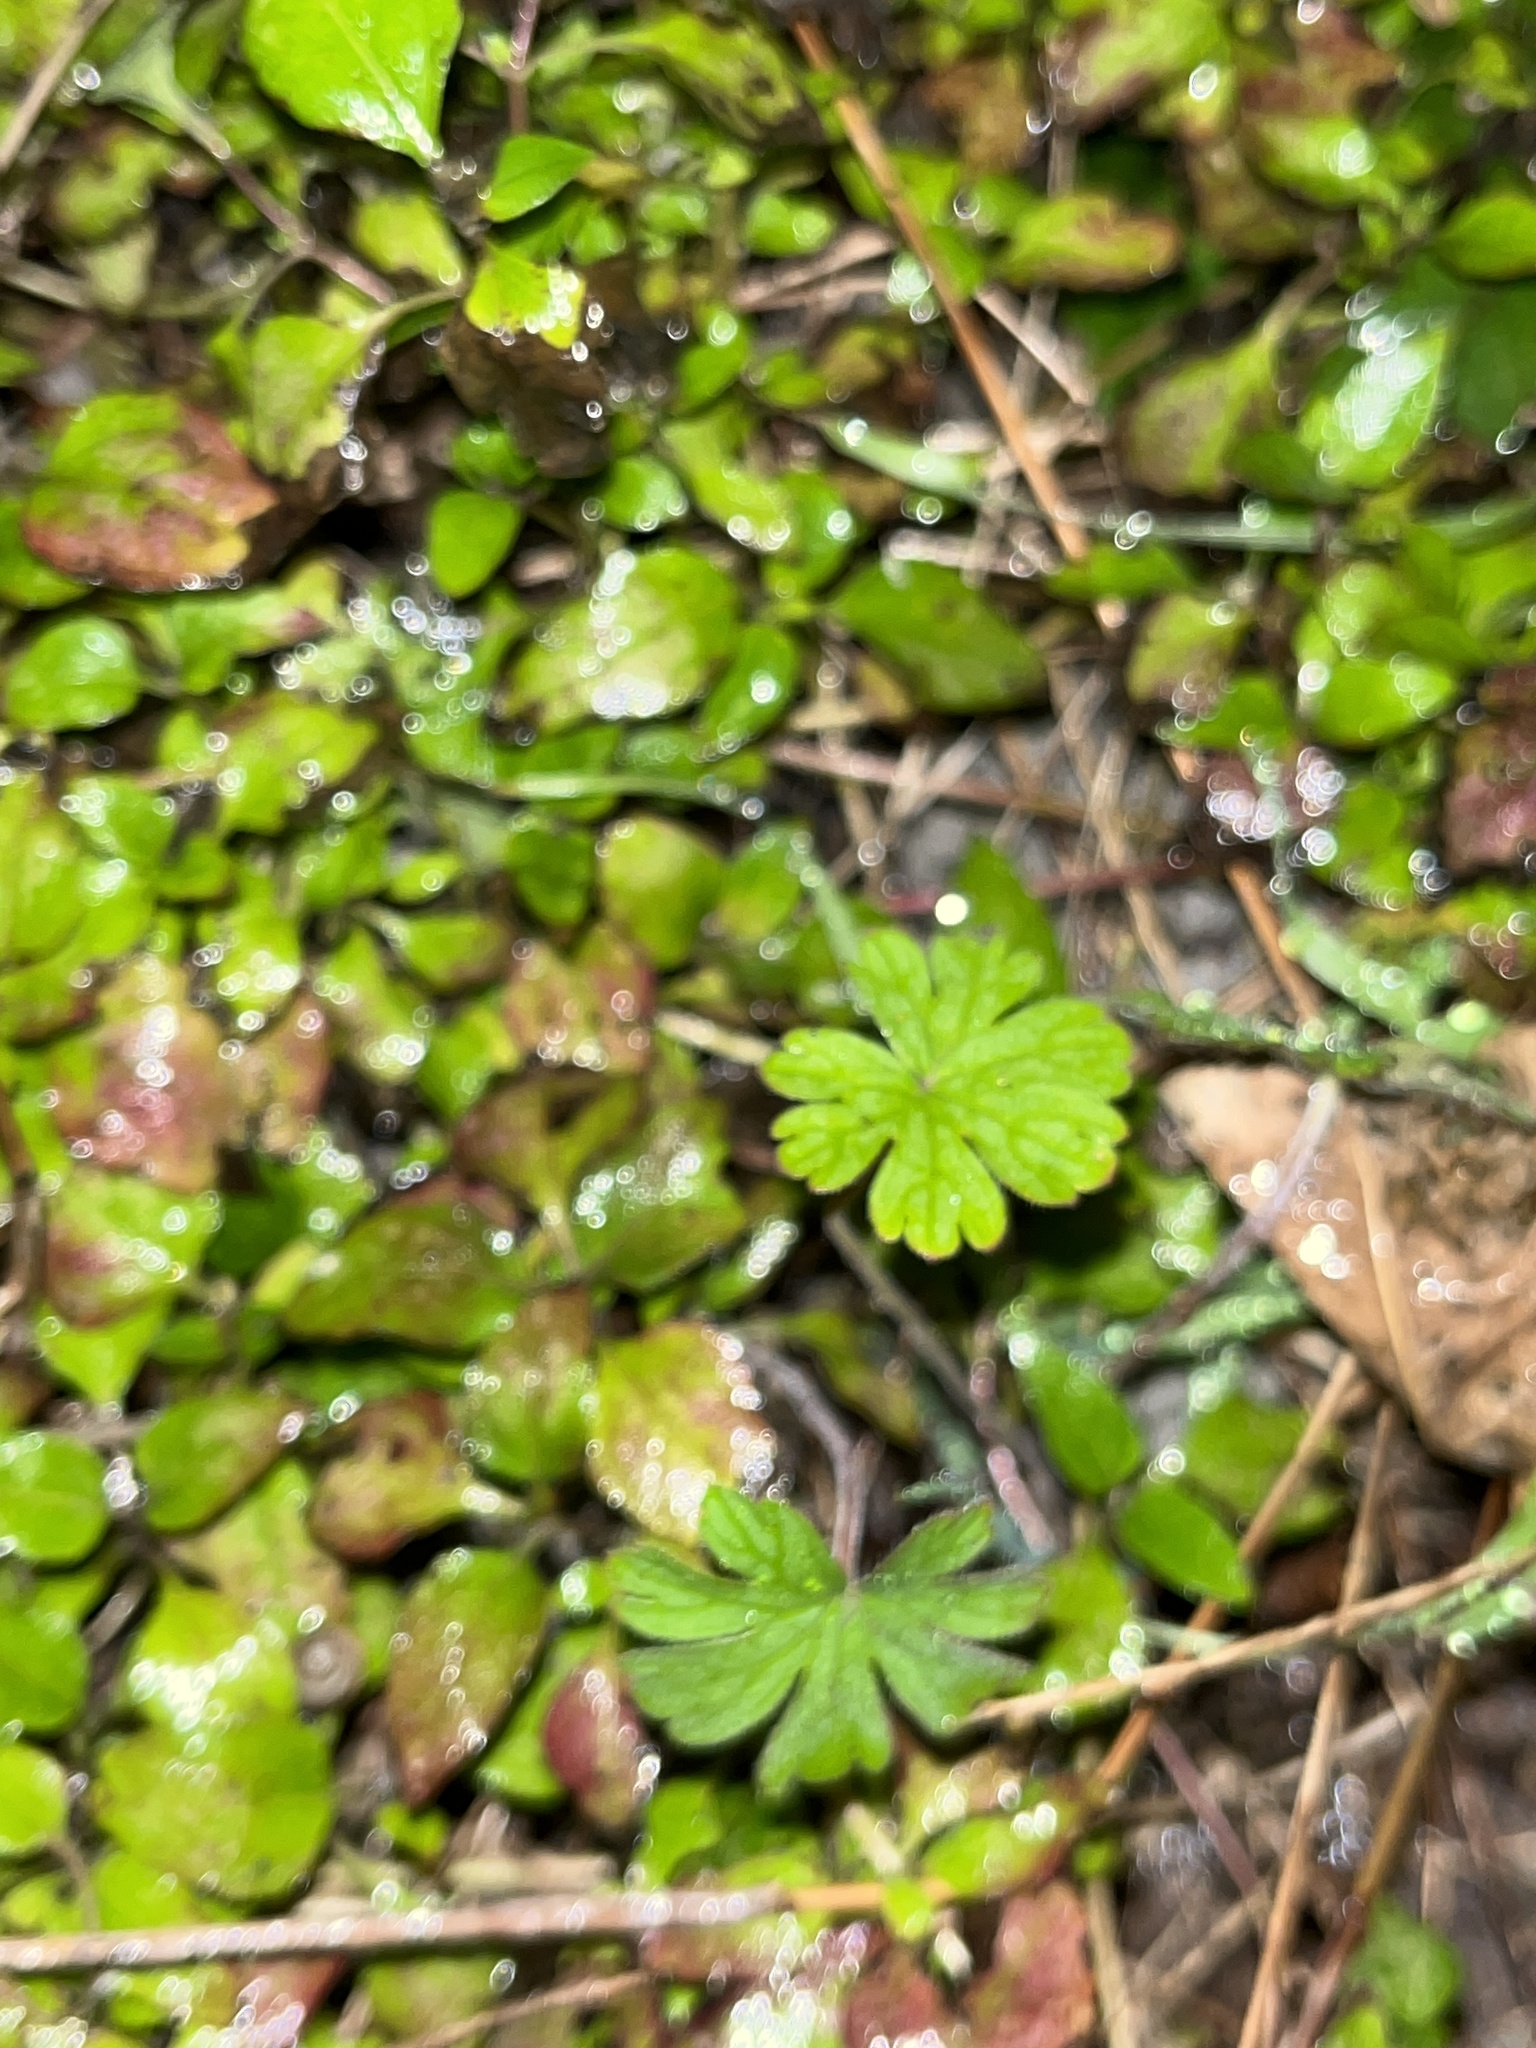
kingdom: Plantae
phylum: Tracheophyta
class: Magnoliopsida
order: Geraniales
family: Geraniaceae
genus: Geranium
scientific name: Geranium carolinianum
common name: Carolina crane's-bill
